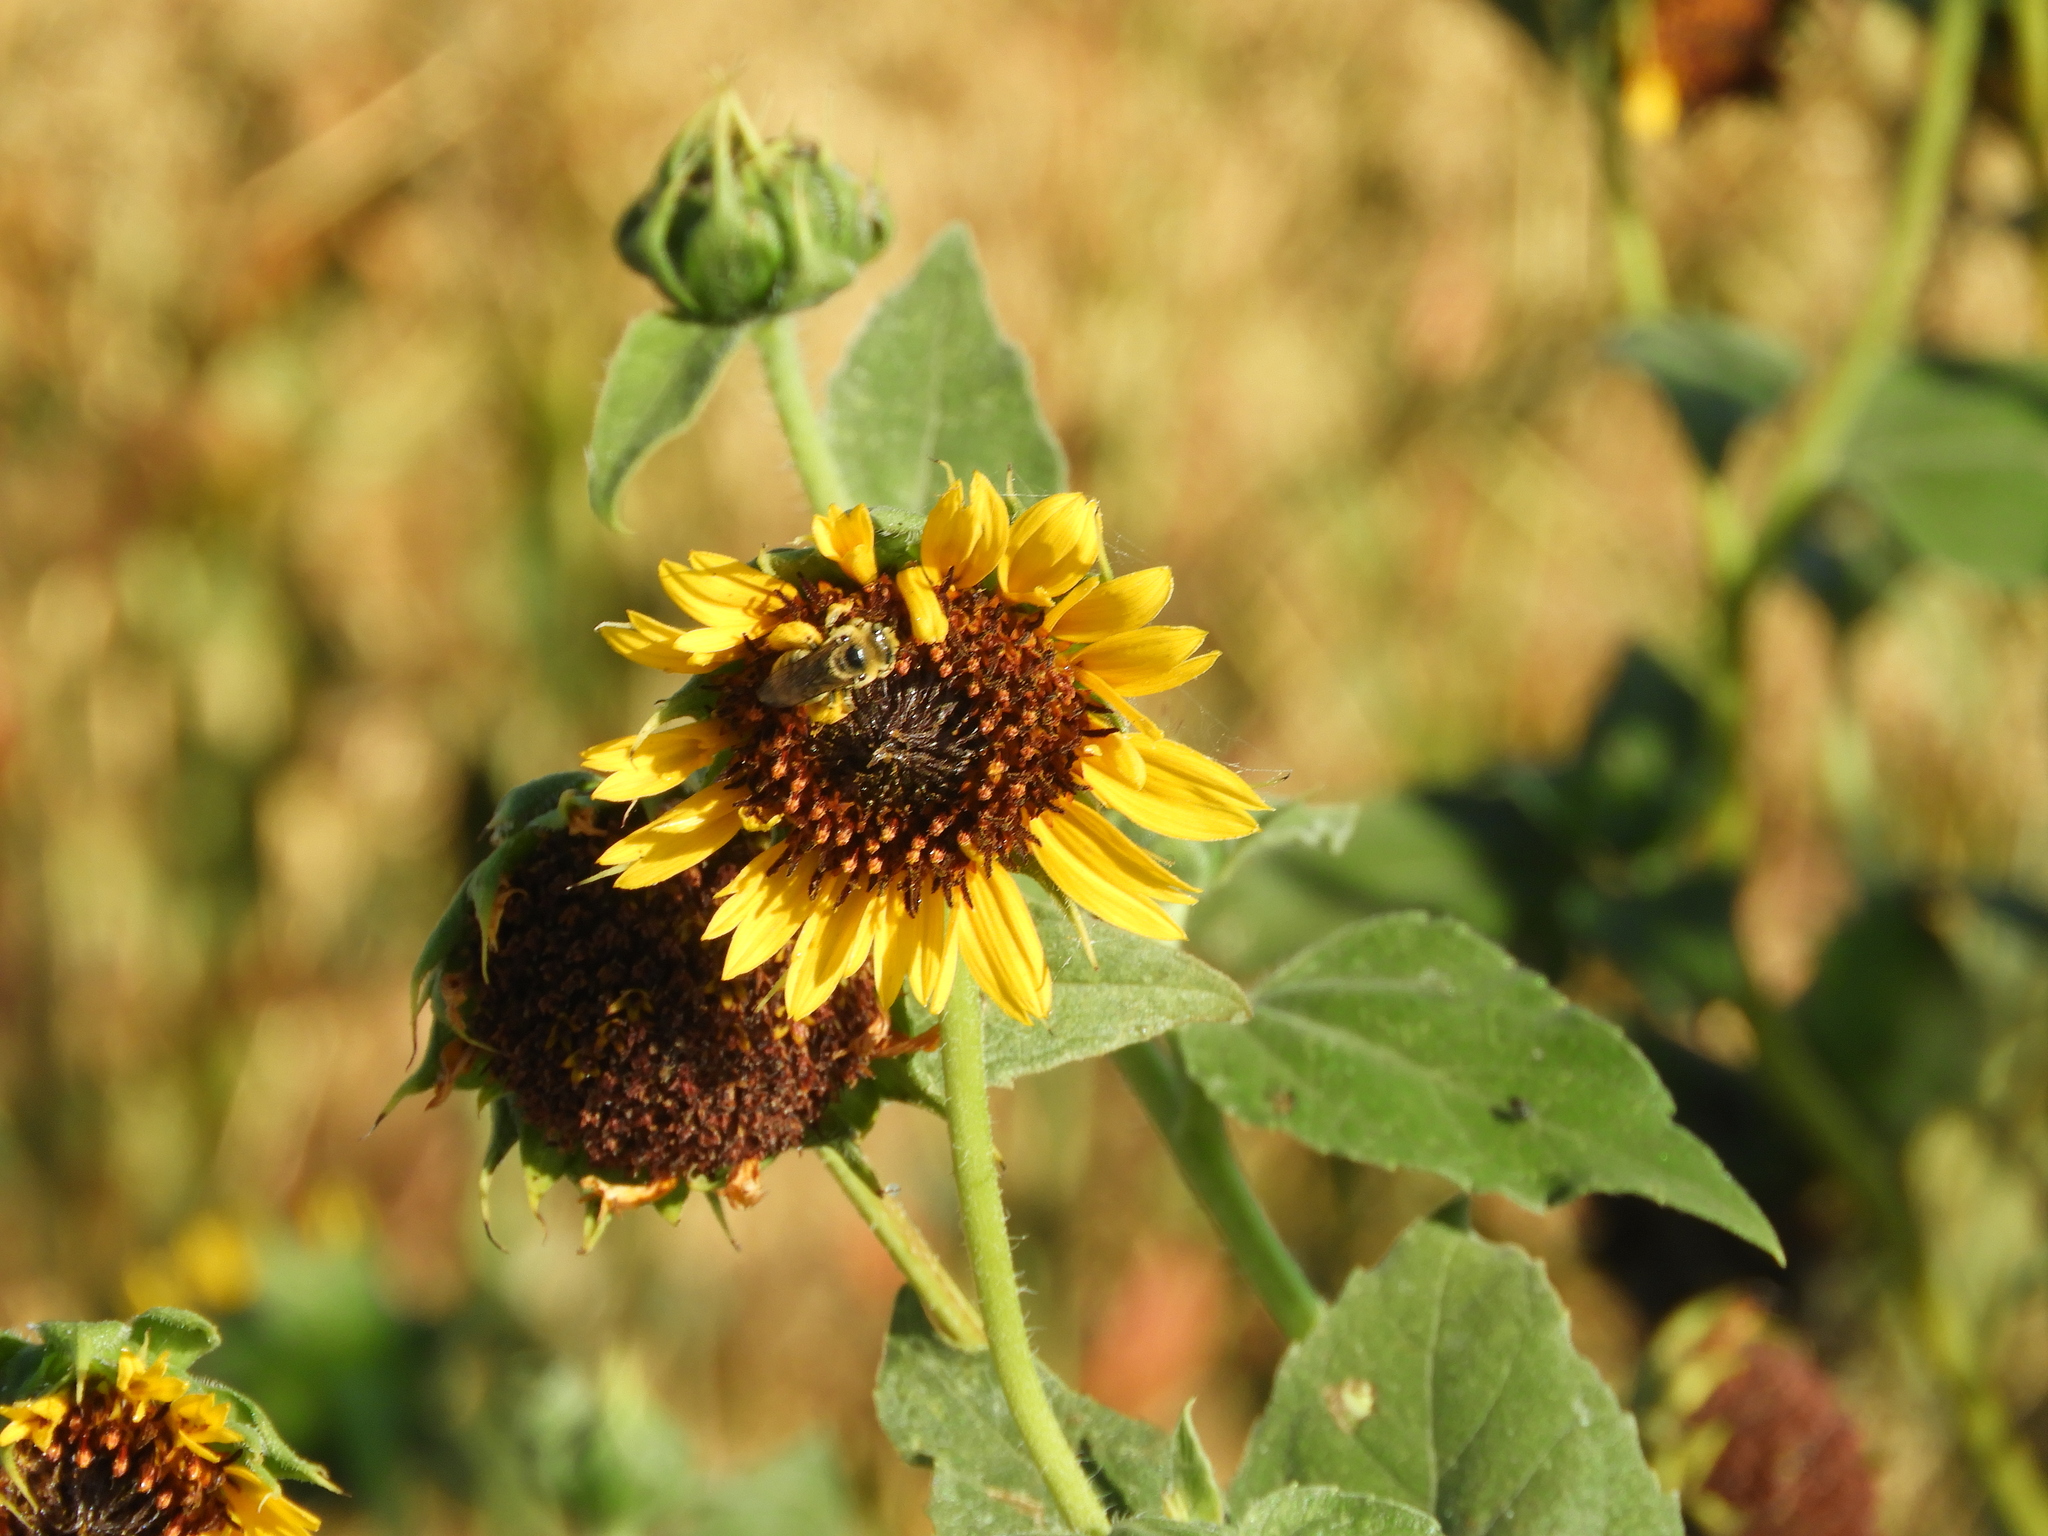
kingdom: Animalia
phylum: Arthropoda
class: Insecta
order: Hymenoptera
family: Apidae
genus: Diadasia
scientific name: Diadasia enavata
